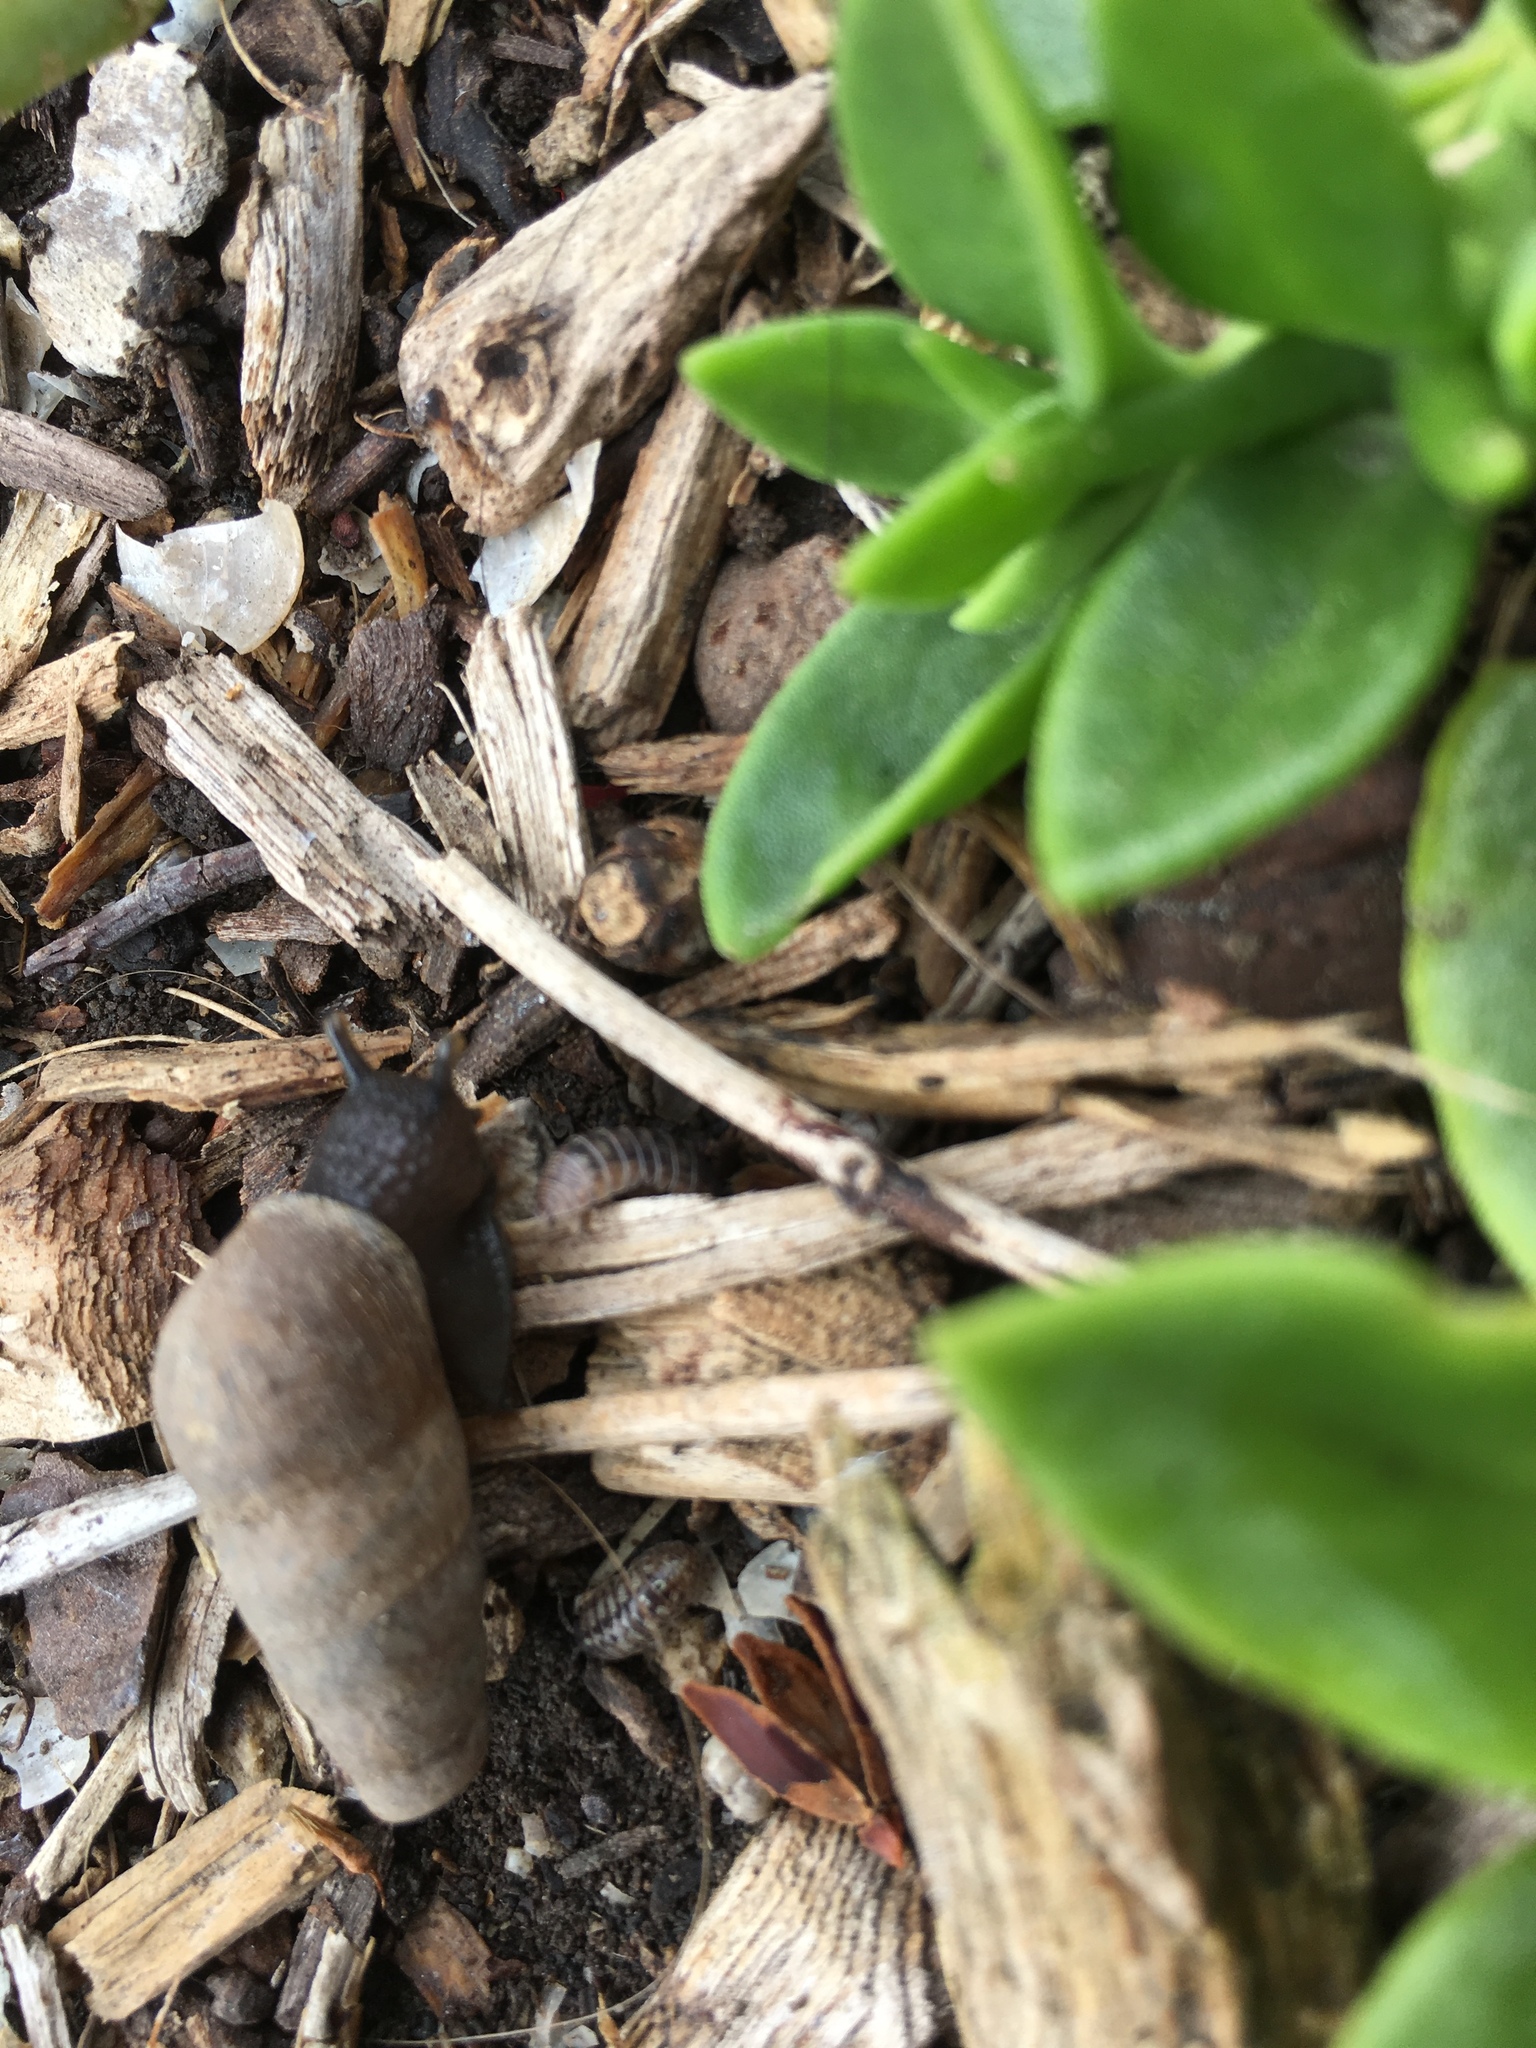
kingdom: Animalia
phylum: Mollusca
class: Gastropoda
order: Stylommatophora
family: Achatinidae
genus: Rumina
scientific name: Rumina decollata
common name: Decollate snail
